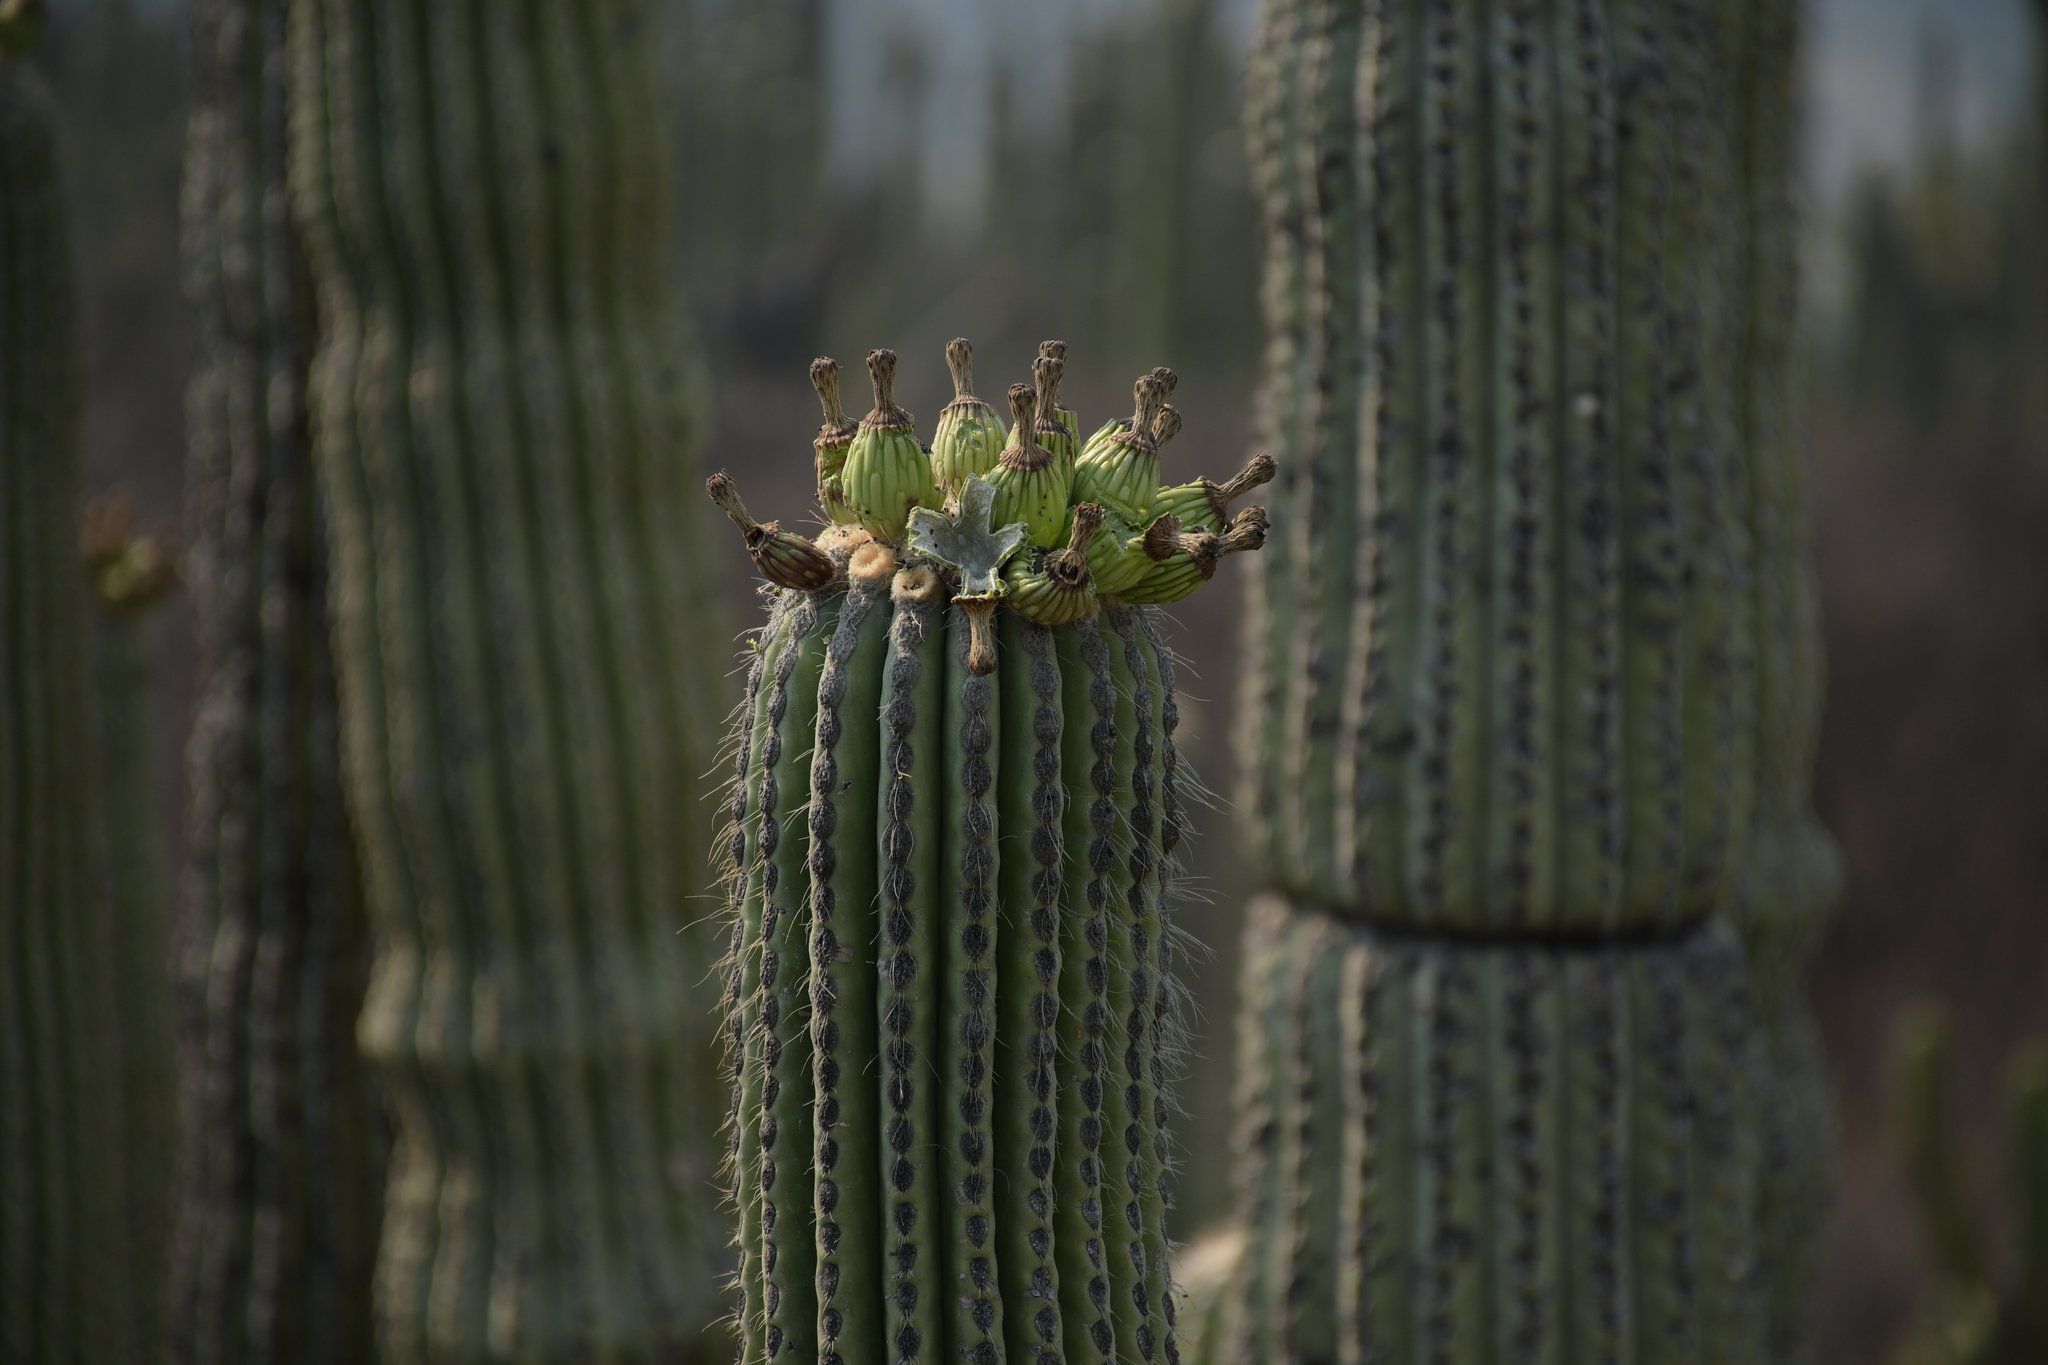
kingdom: Plantae
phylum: Tracheophyta
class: Magnoliopsida
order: Caryophyllales
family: Cactaceae
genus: Cephalocereus
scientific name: Cephalocereus tetetzo
